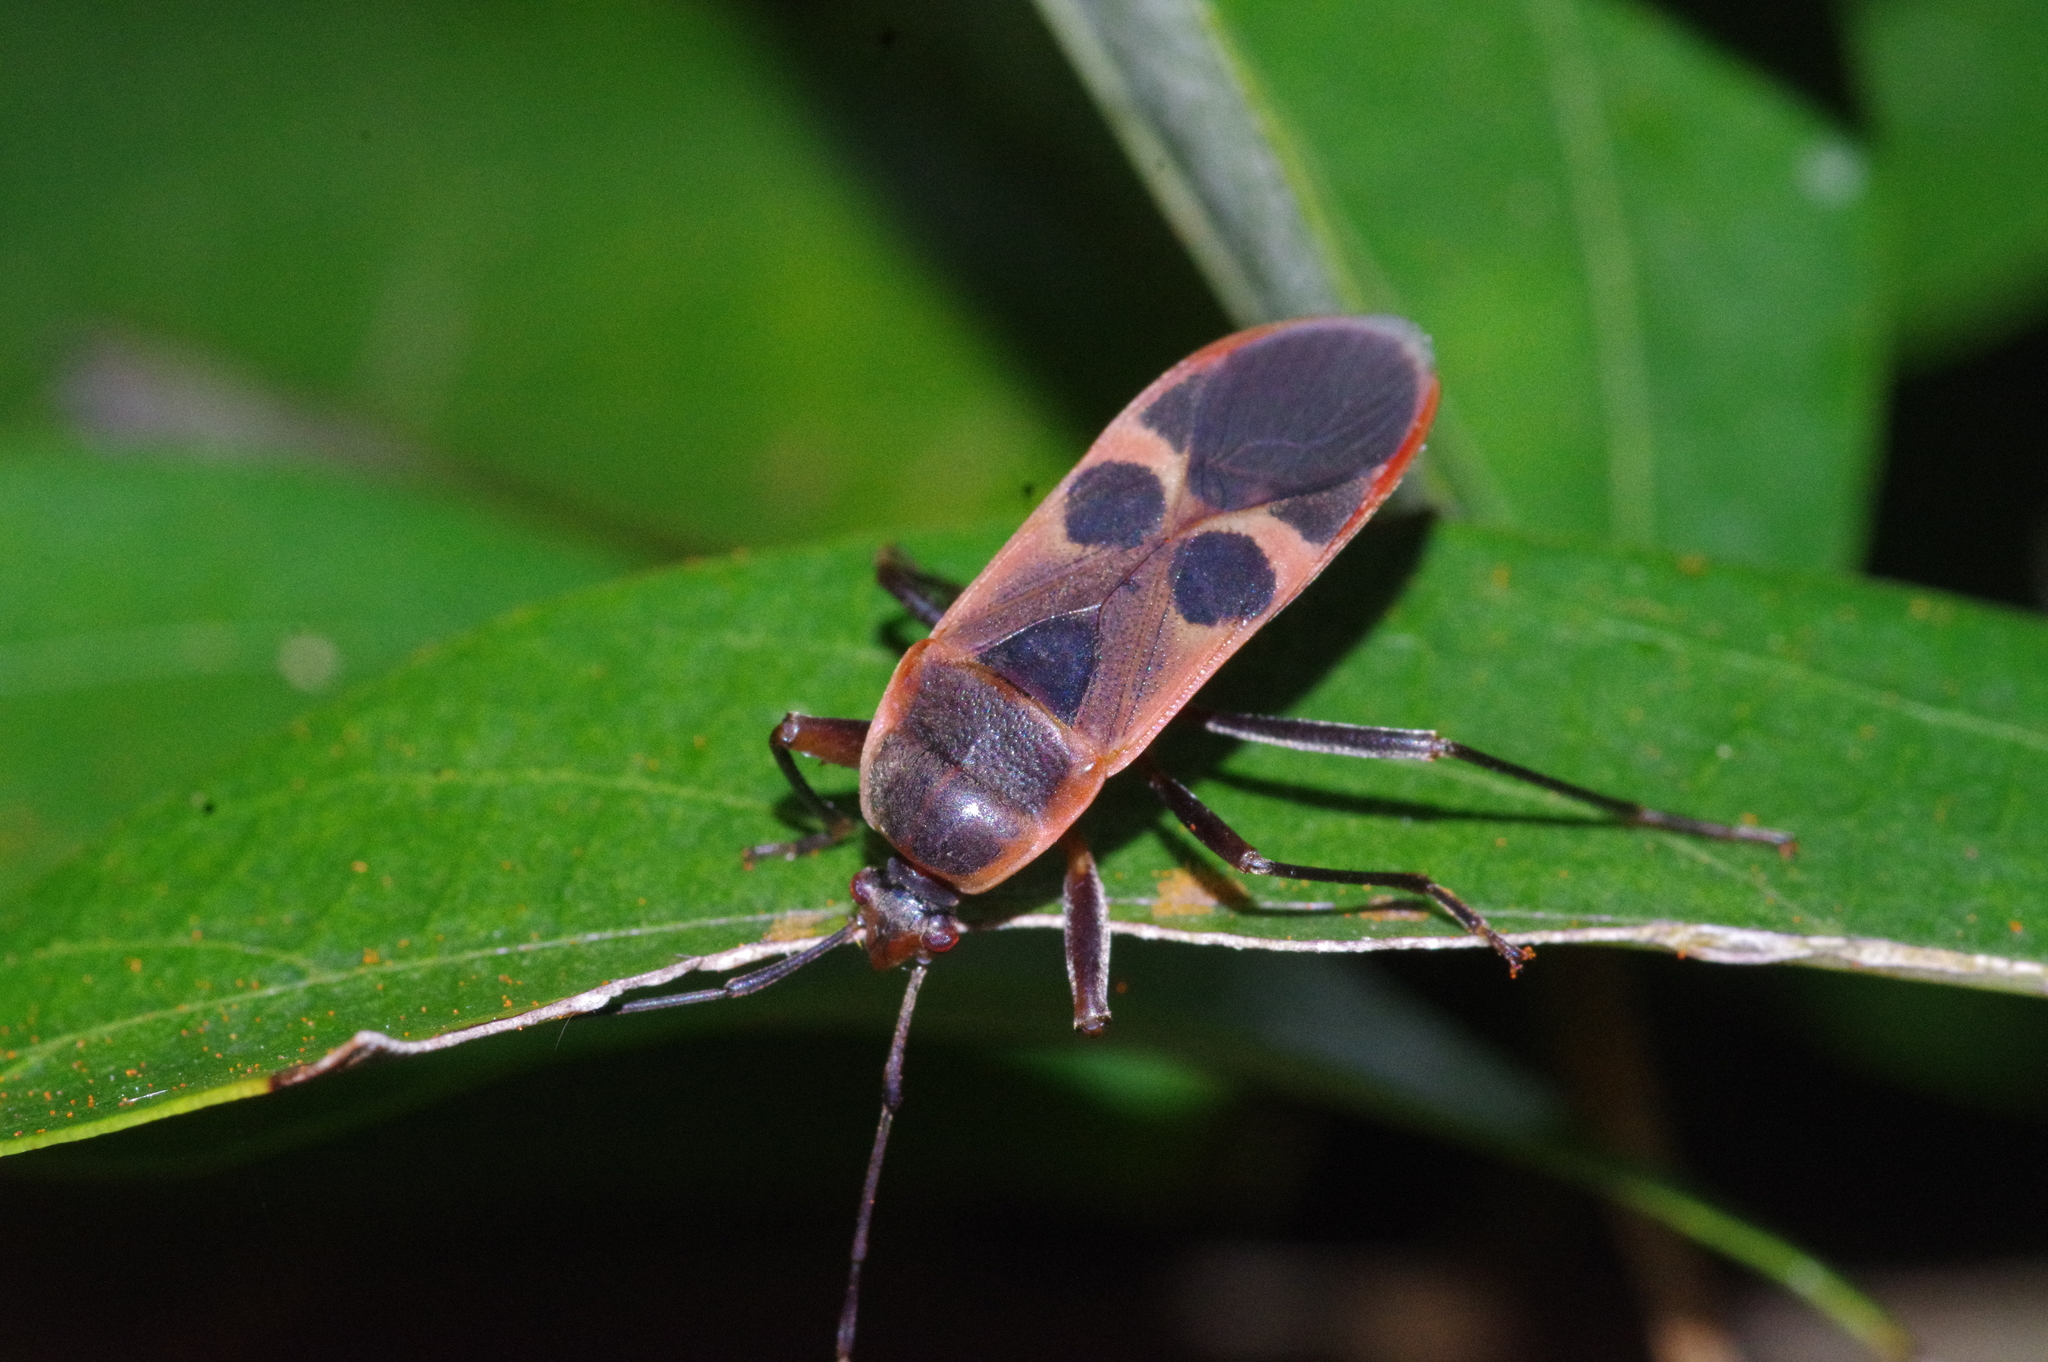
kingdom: Animalia
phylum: Arthropoda
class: Insecta
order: Hemiptera
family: Largidae
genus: Physopelta
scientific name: Physopelta gutta
